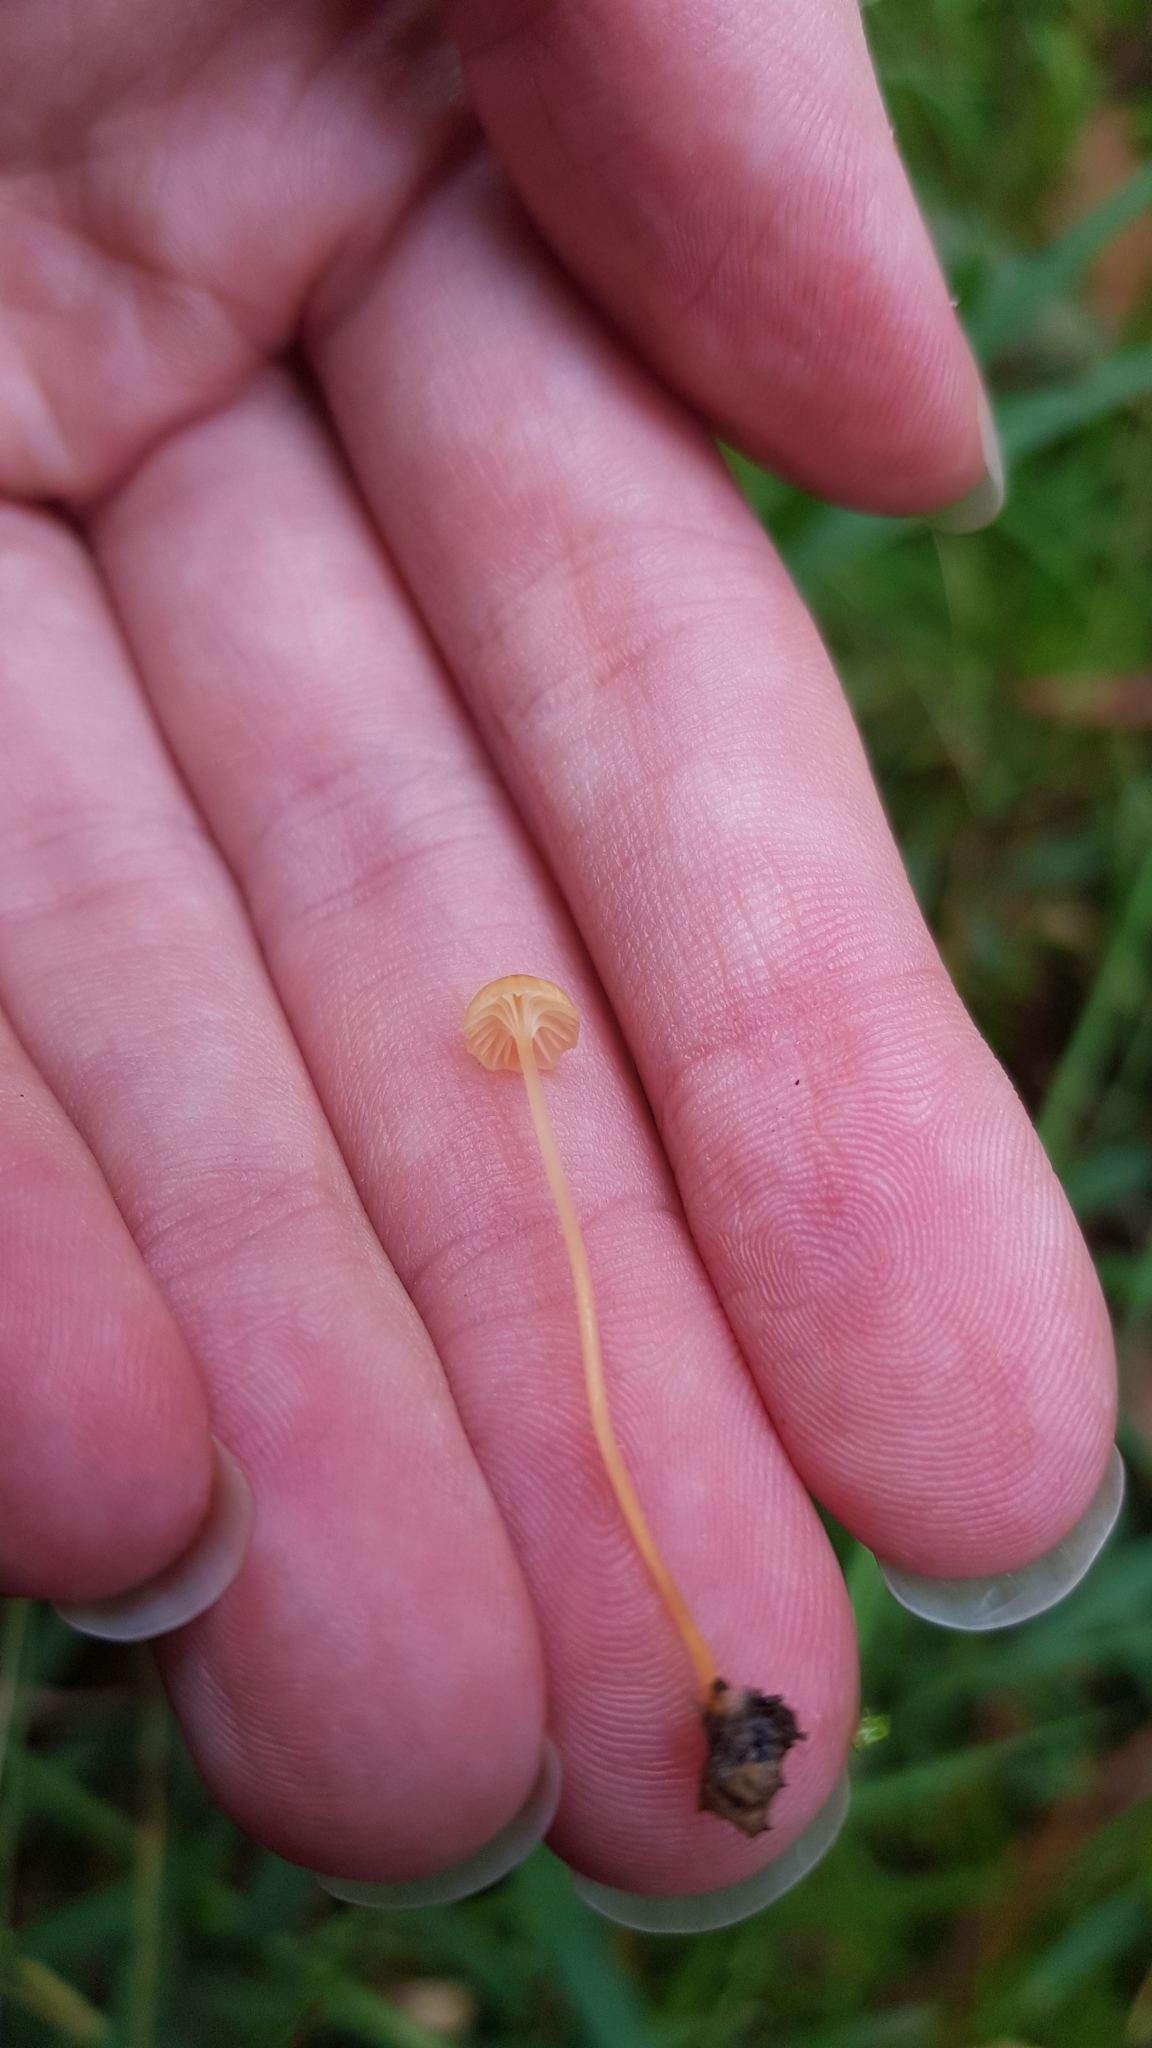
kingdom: Fungi
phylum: Basidiomycota
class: Agaricomycetes
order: Hymenochaetales
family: Rickenellaceae
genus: Rickenella
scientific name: Rickenella fibula
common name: Orange mosscap
